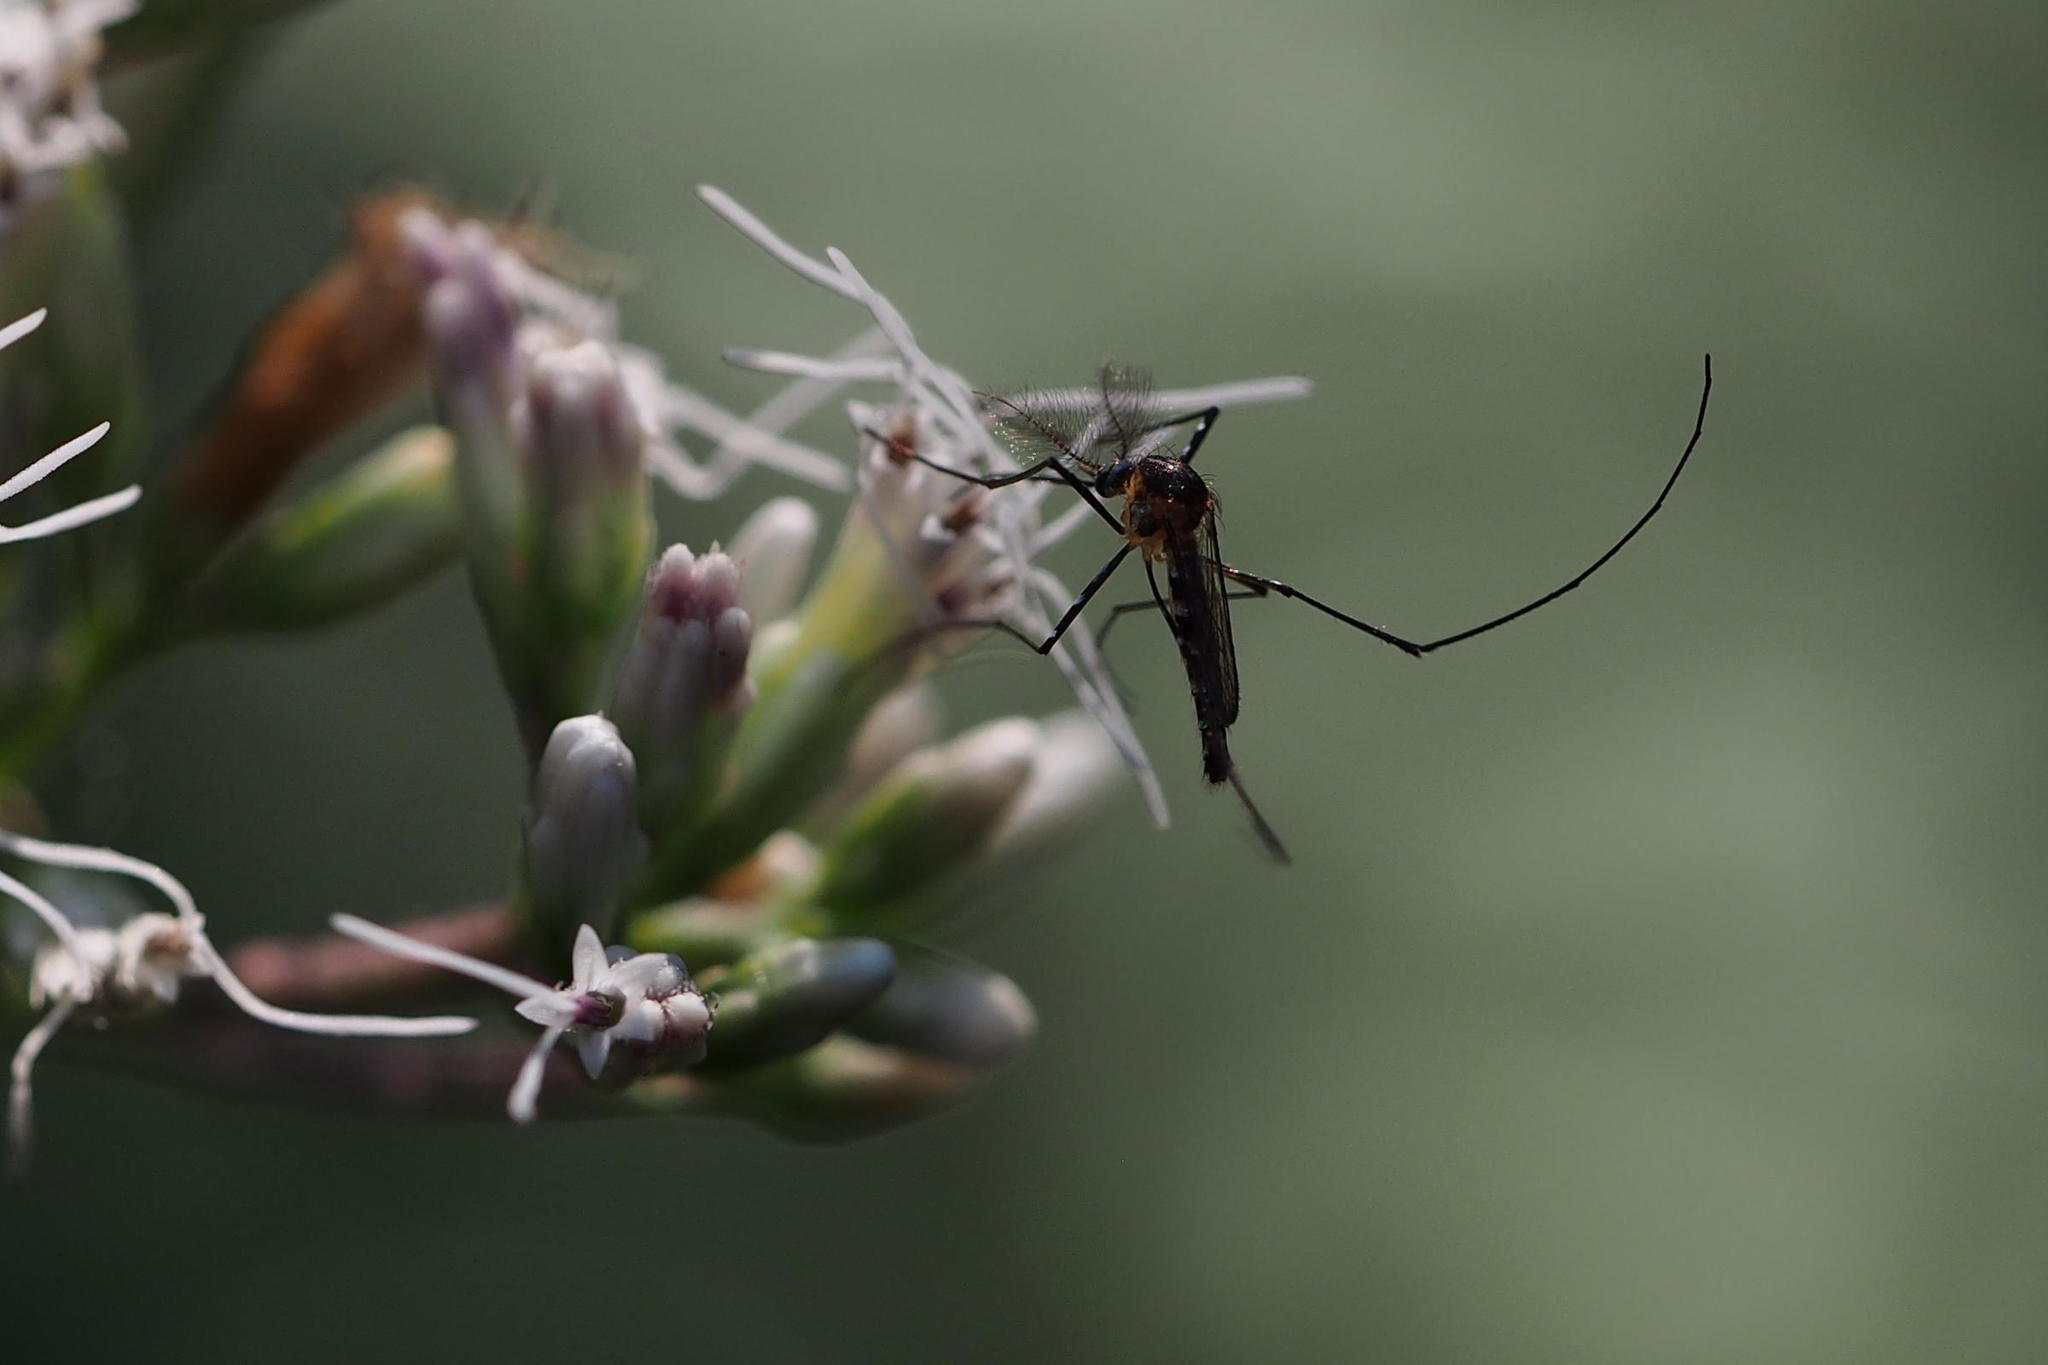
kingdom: Animalia
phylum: Arthropoda
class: Insecta
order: Diptera
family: Culicidae
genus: Tripteroides
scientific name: Tripteroides bambusa
